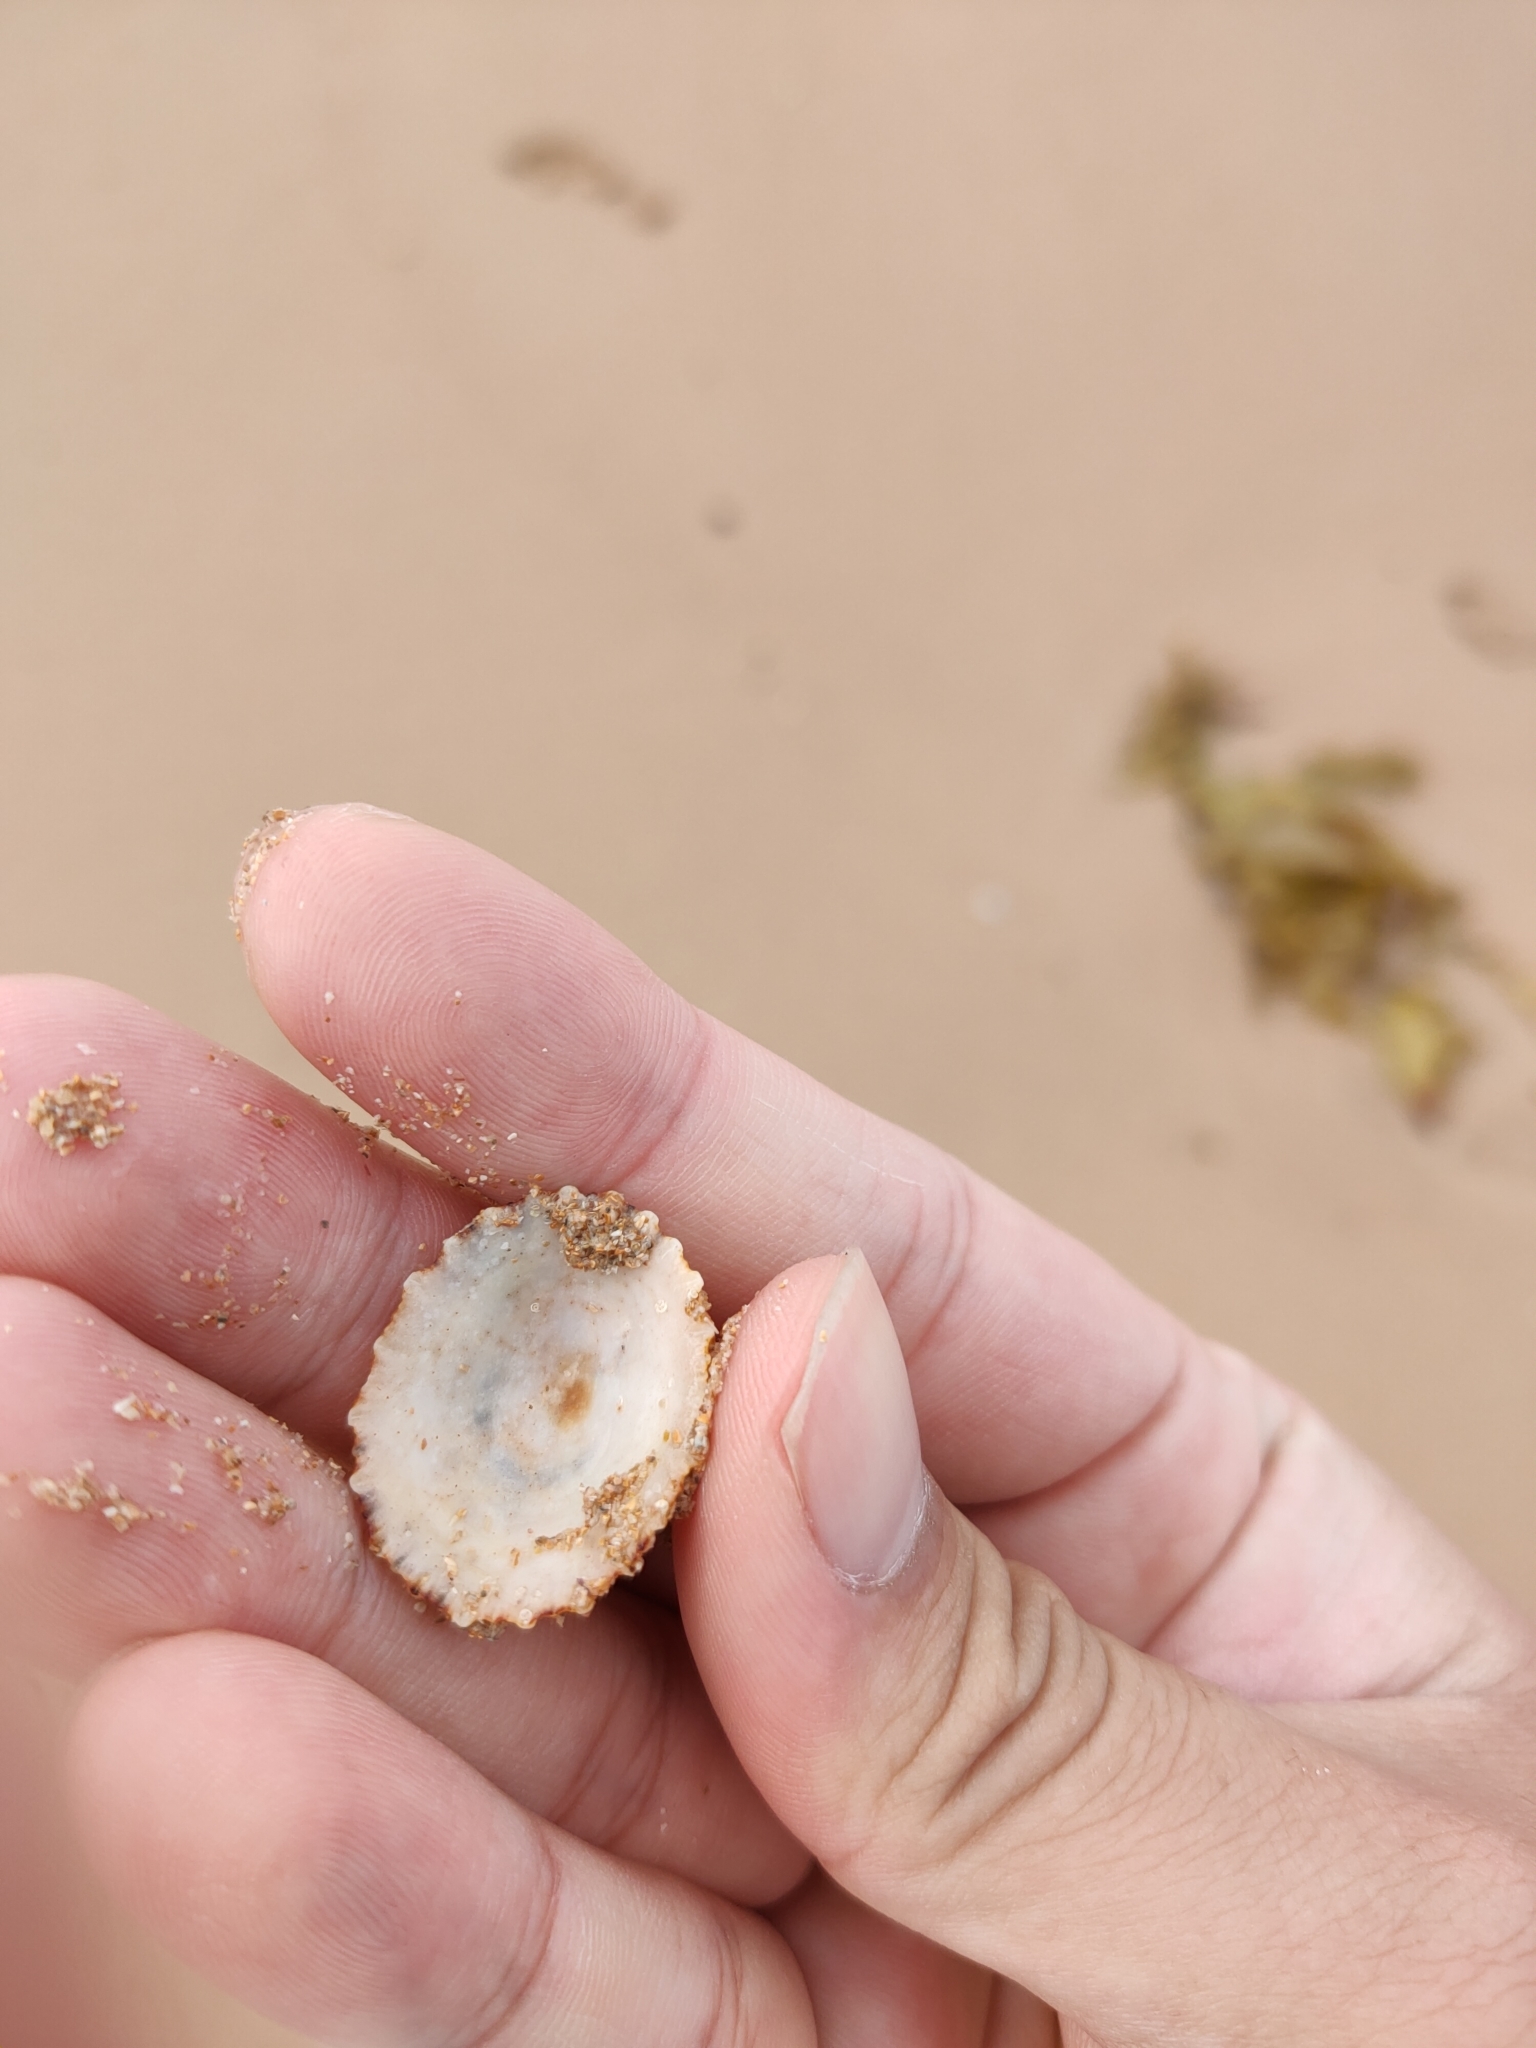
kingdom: Animalia
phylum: Mollusca
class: Gastropoda
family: Patellidae
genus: Scutellastra
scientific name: Scutellastra peronii
